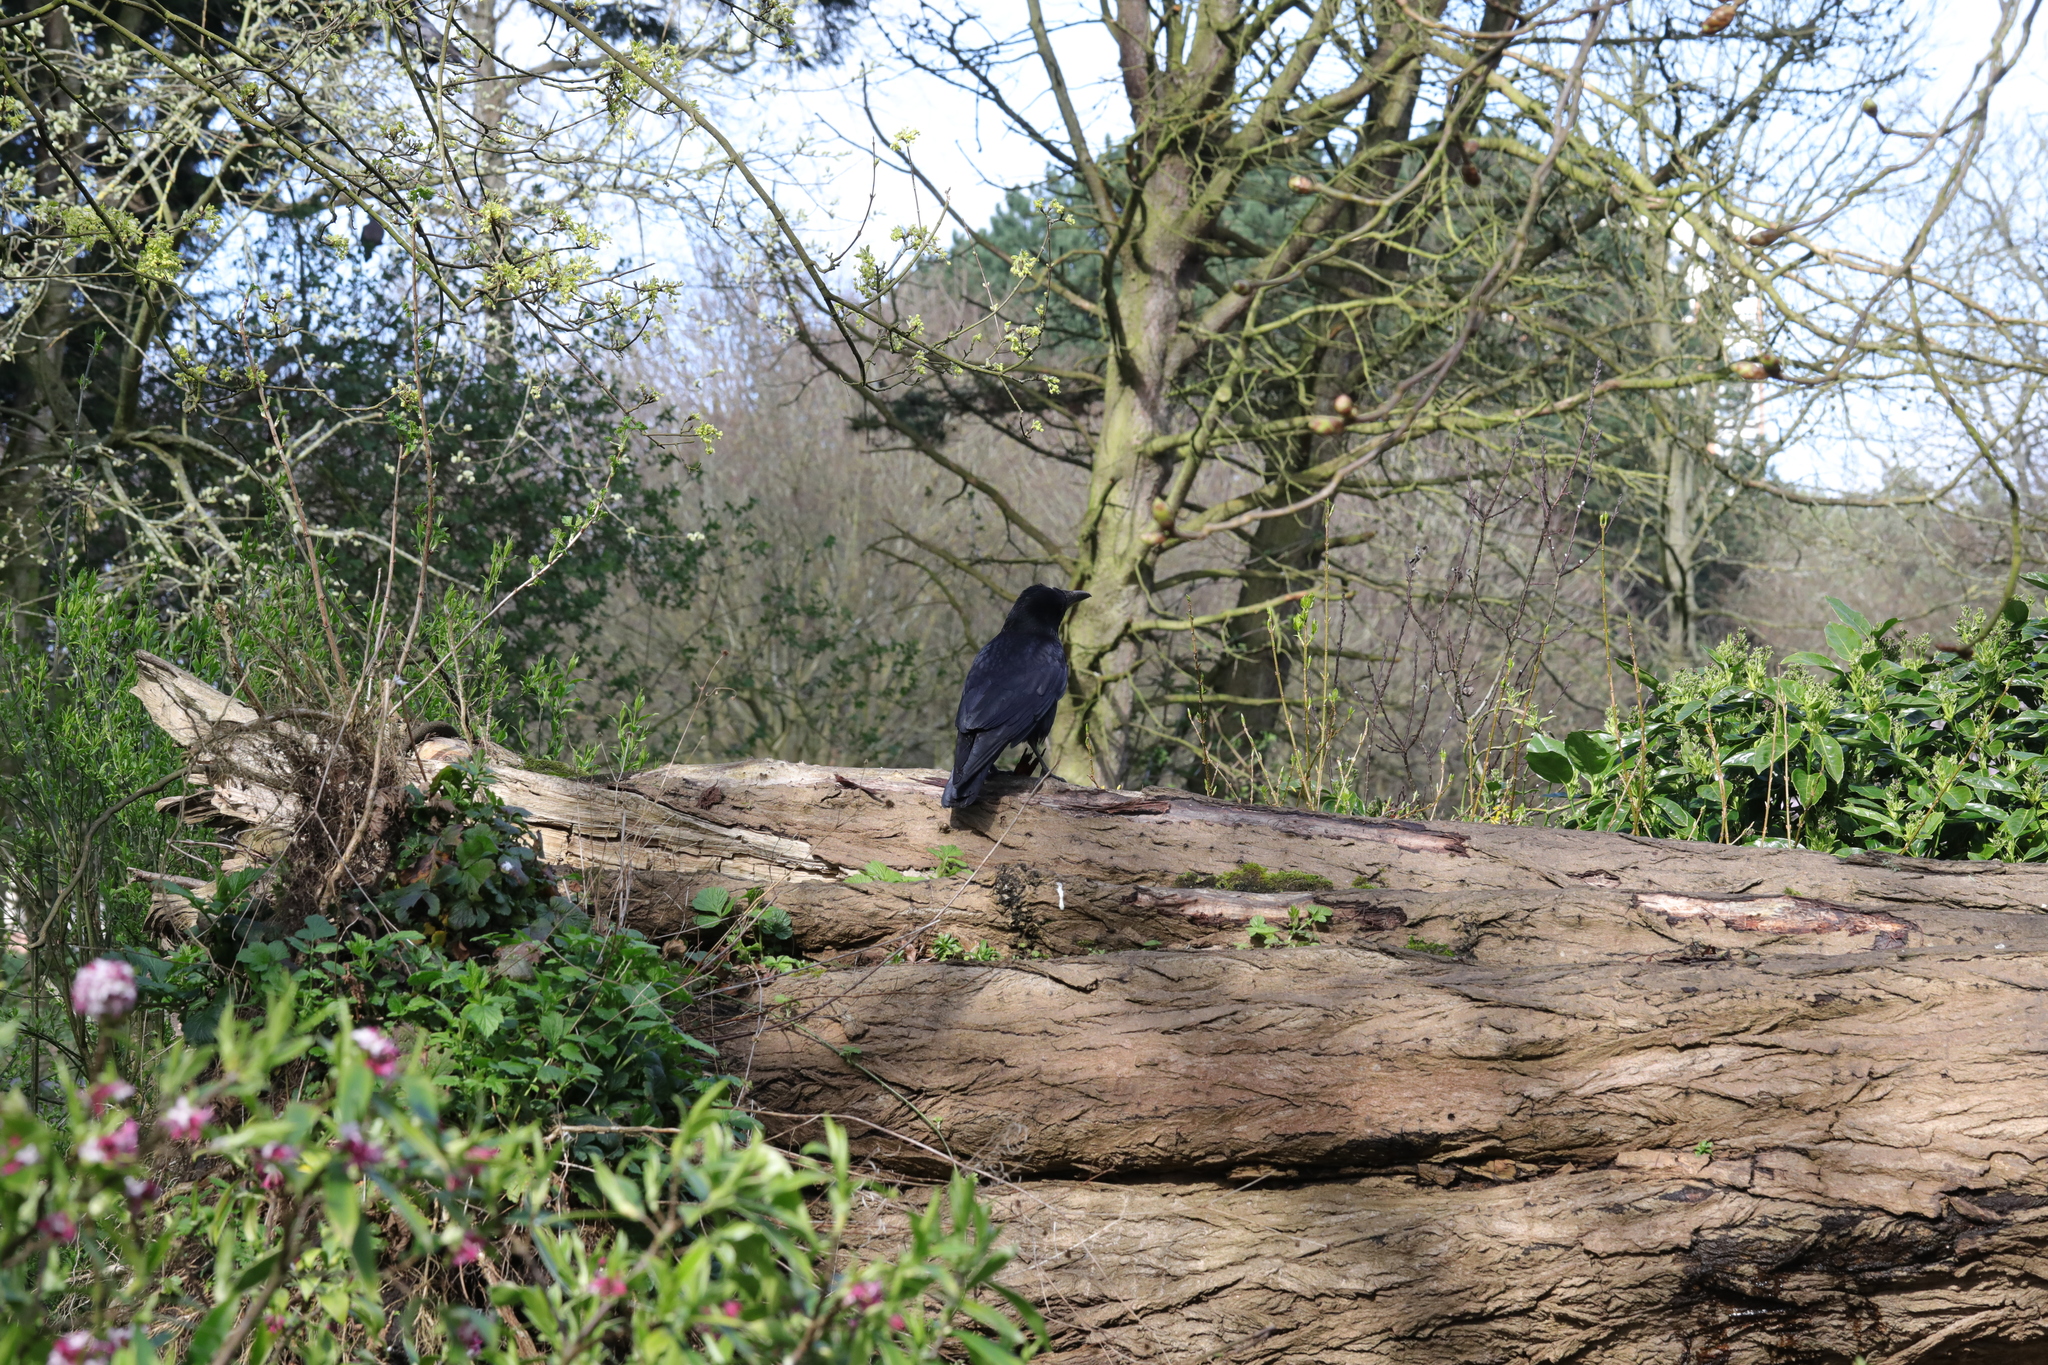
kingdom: Animalia
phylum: Chordata
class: Aves
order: Passeriformes
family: Corvidae
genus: Corvus
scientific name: Corvus corone
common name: Carrion crow
